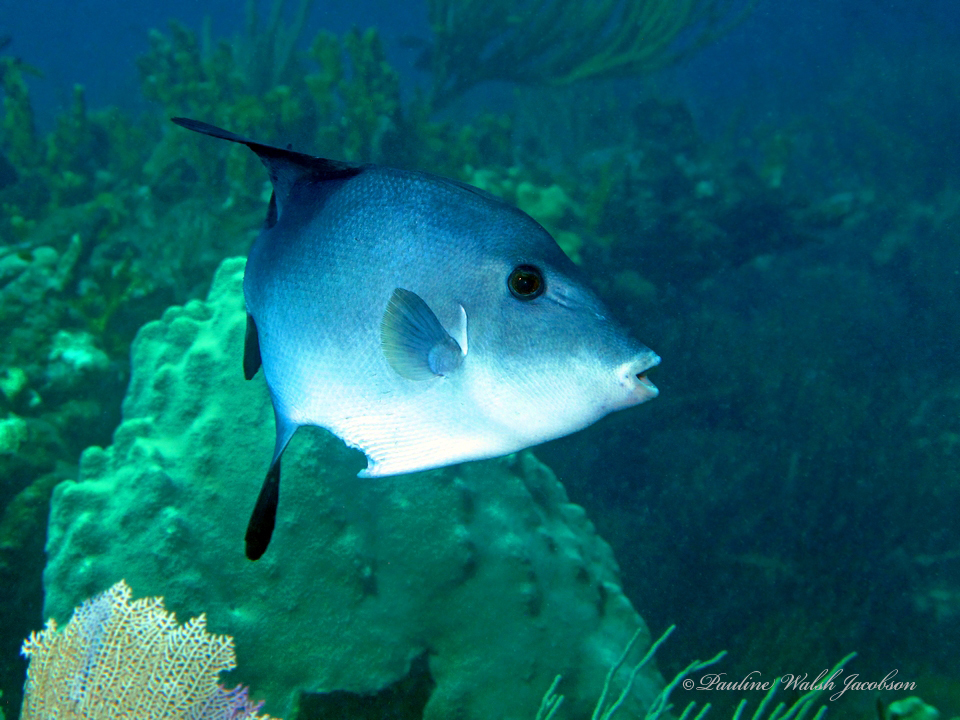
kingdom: Animalia
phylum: Chordata
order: Tetraodontiformes
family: Balistidae
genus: Canthidermis
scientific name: Canthidermis sufflamen
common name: Ocean triggerfish
